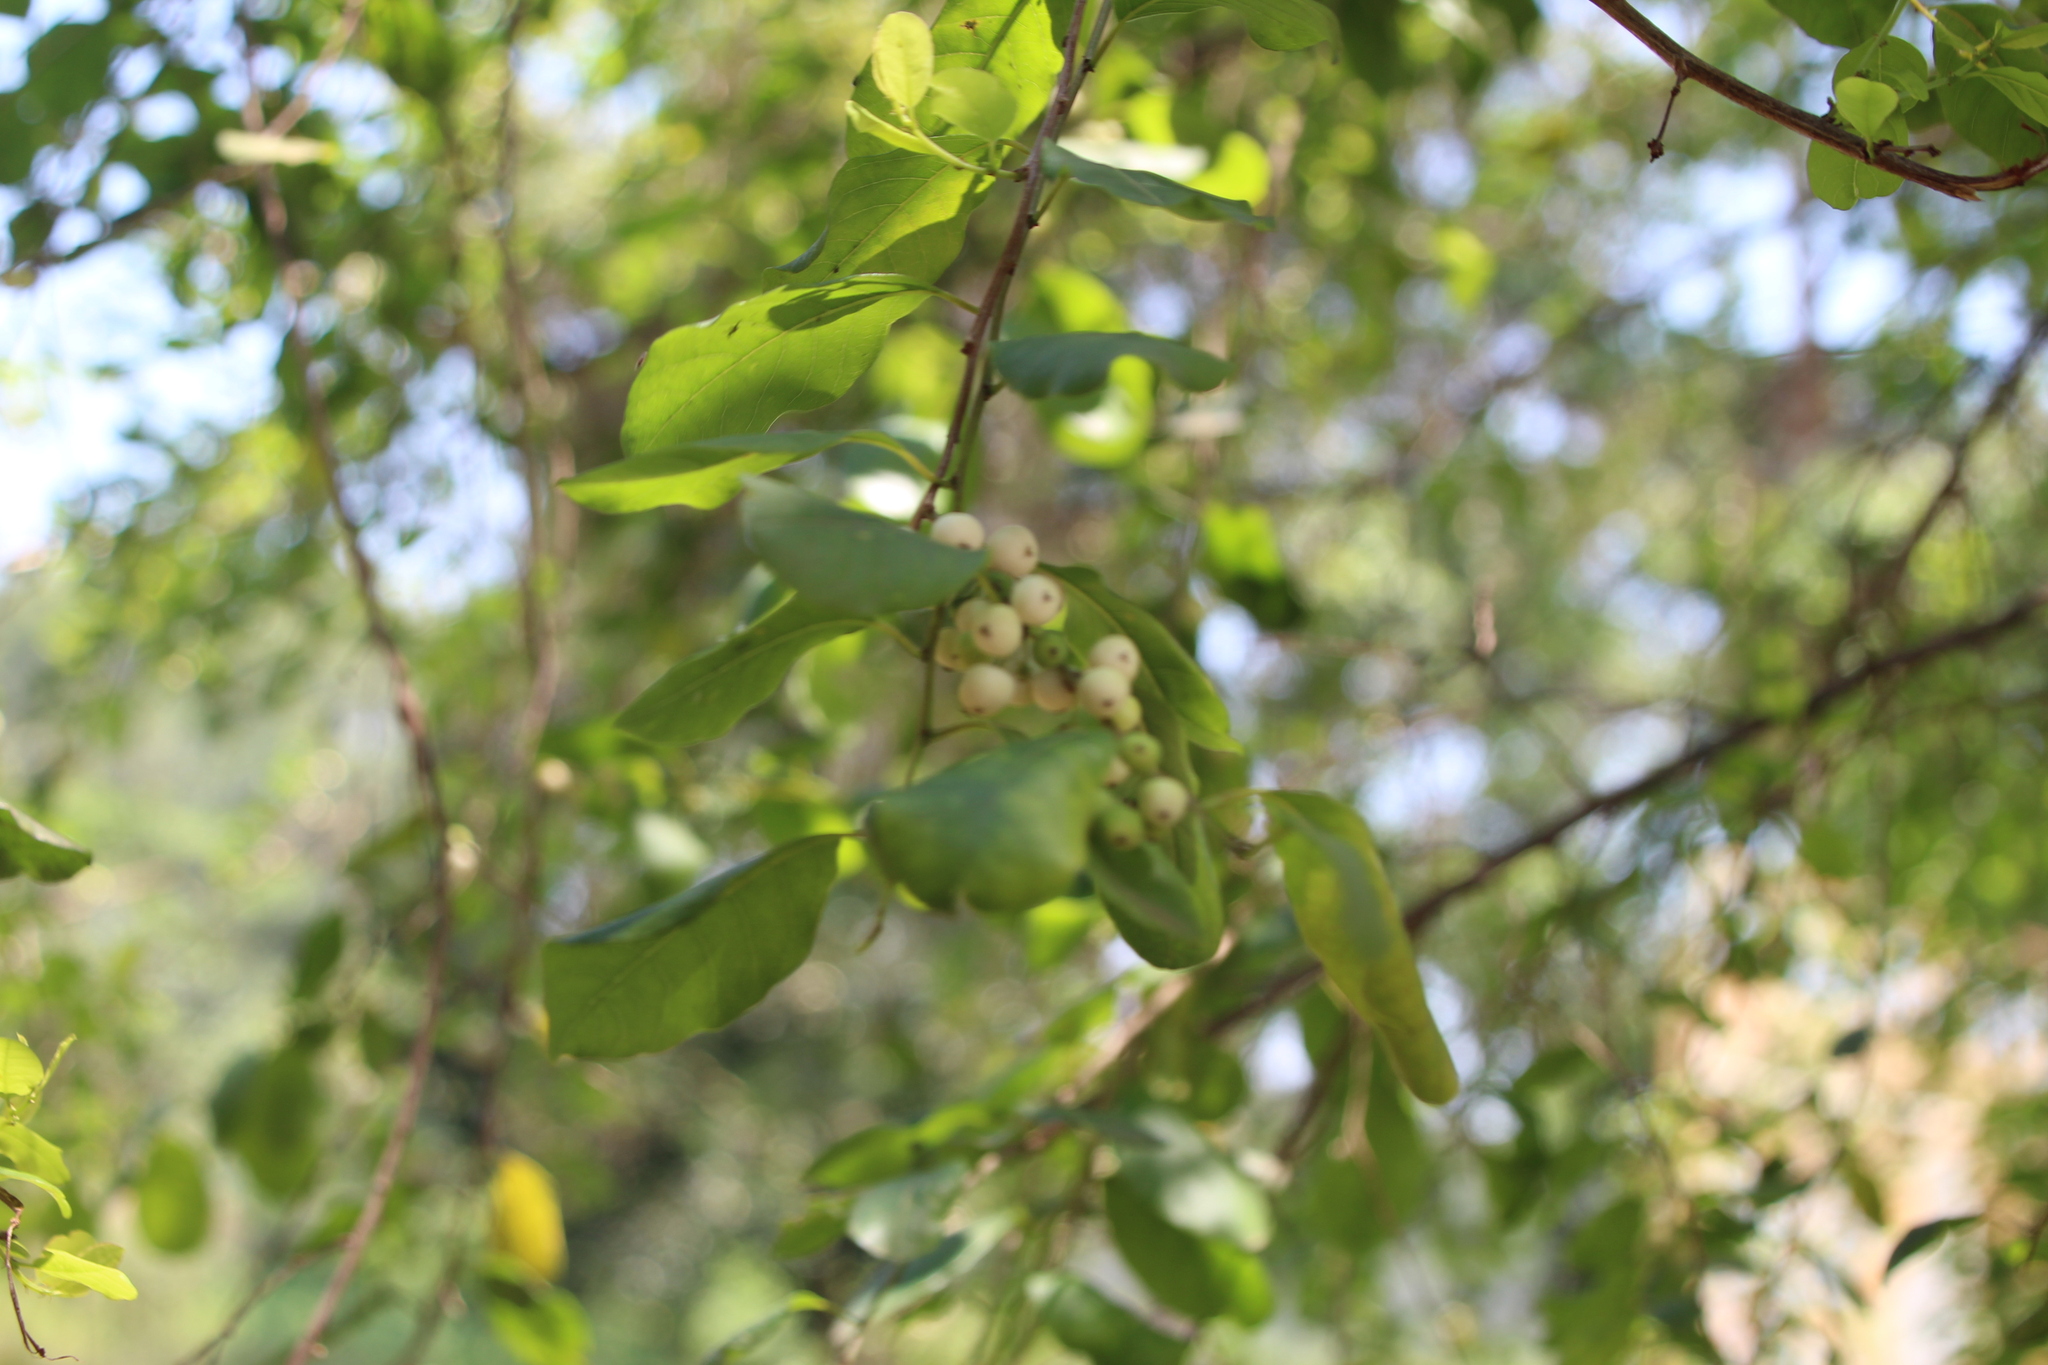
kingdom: Plantae
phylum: Tracheophyta
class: Magnoliopsida
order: Malpighiales
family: Phyllanthaceae
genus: Flueggea
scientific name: Flueggea virosa
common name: Common bushweed
